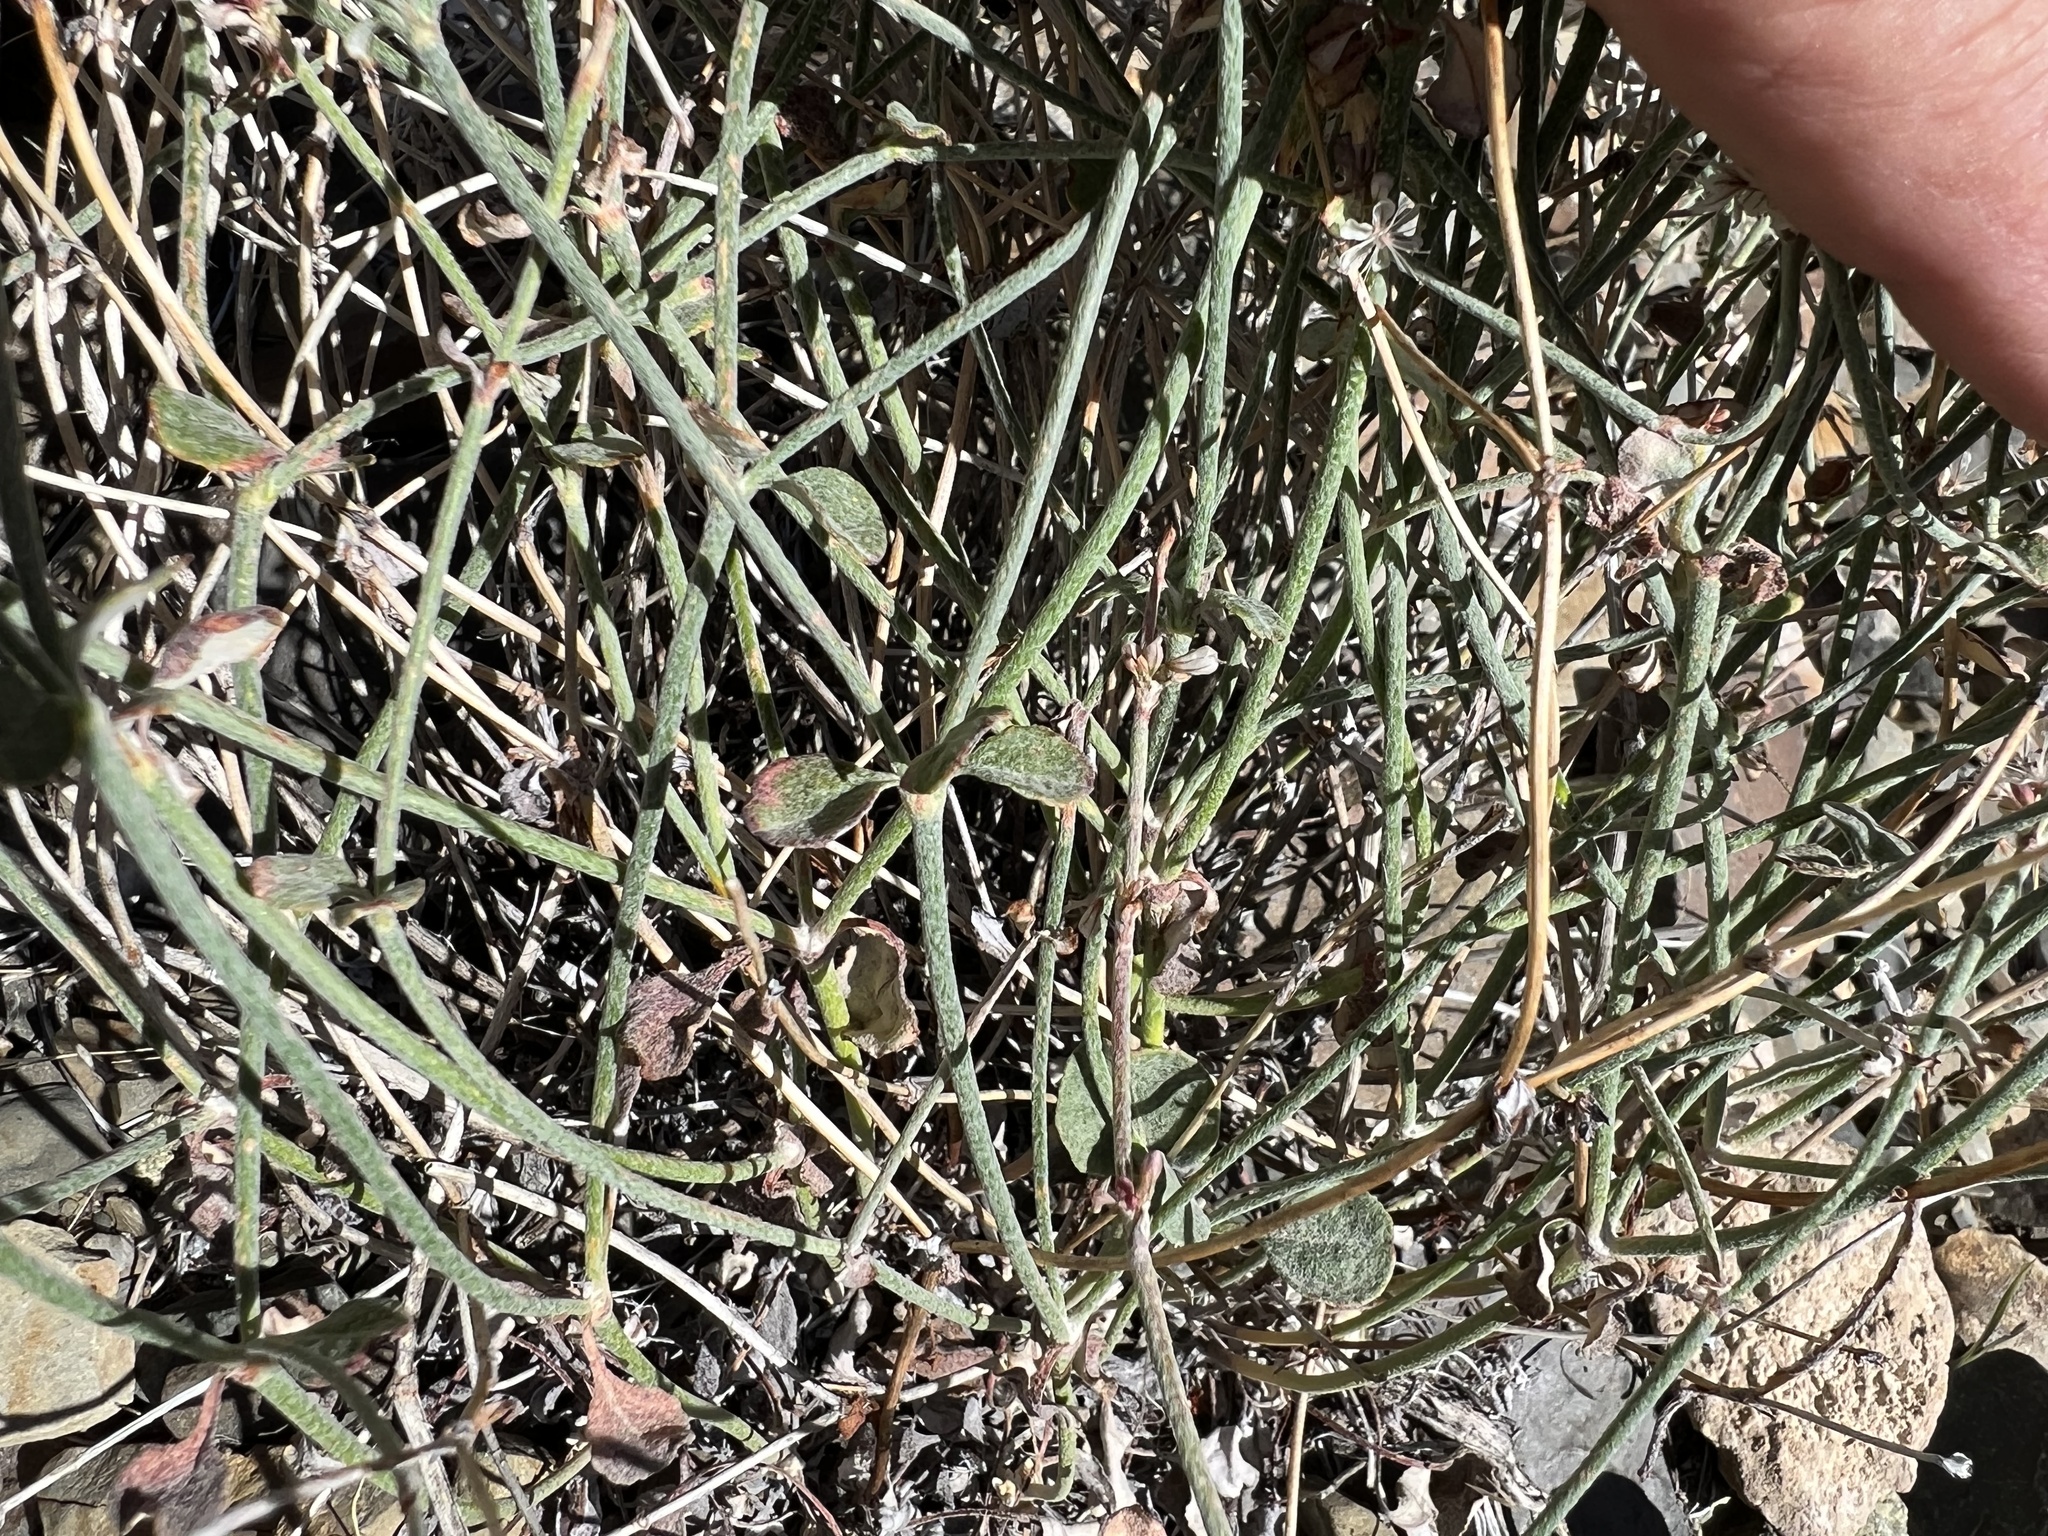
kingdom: Plantae
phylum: Tracheophyta
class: Magnoliopsida
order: Caryophyllales
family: Polygonaceae
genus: Eriogonum
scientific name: Eriogonum panamintense
